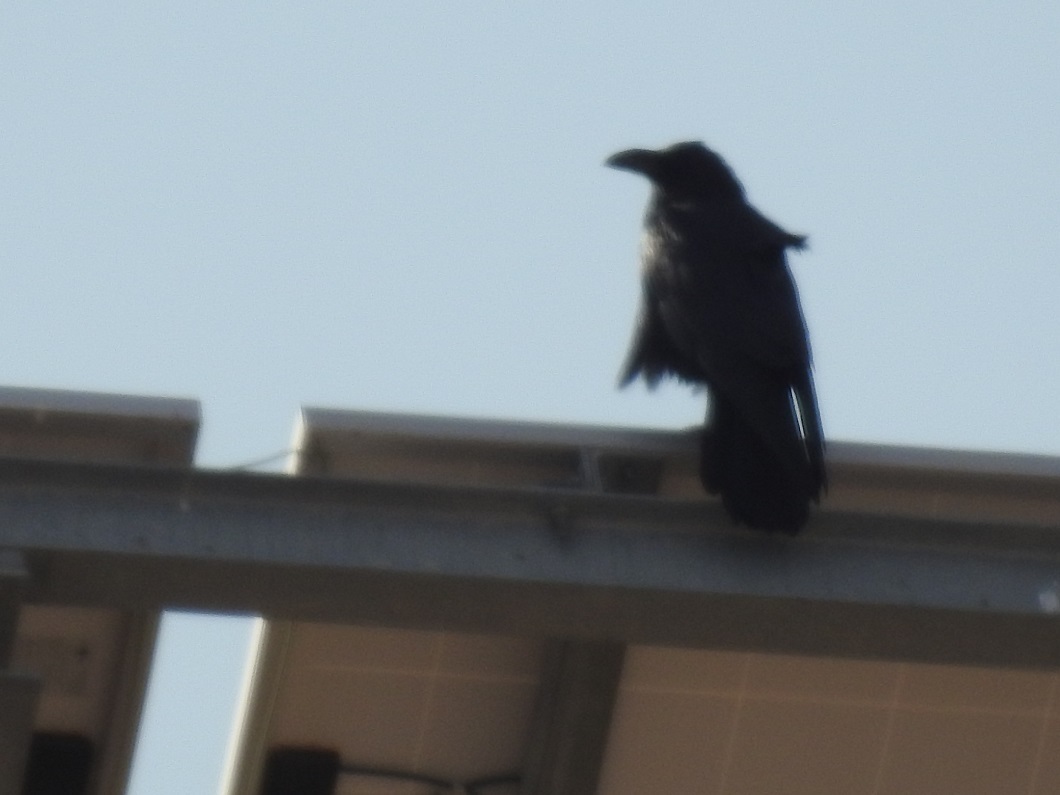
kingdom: Animalia
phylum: Chordata
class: Aves
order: Passeriformes
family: Corvidae
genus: Corvus
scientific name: Corvus corax
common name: Common raven
